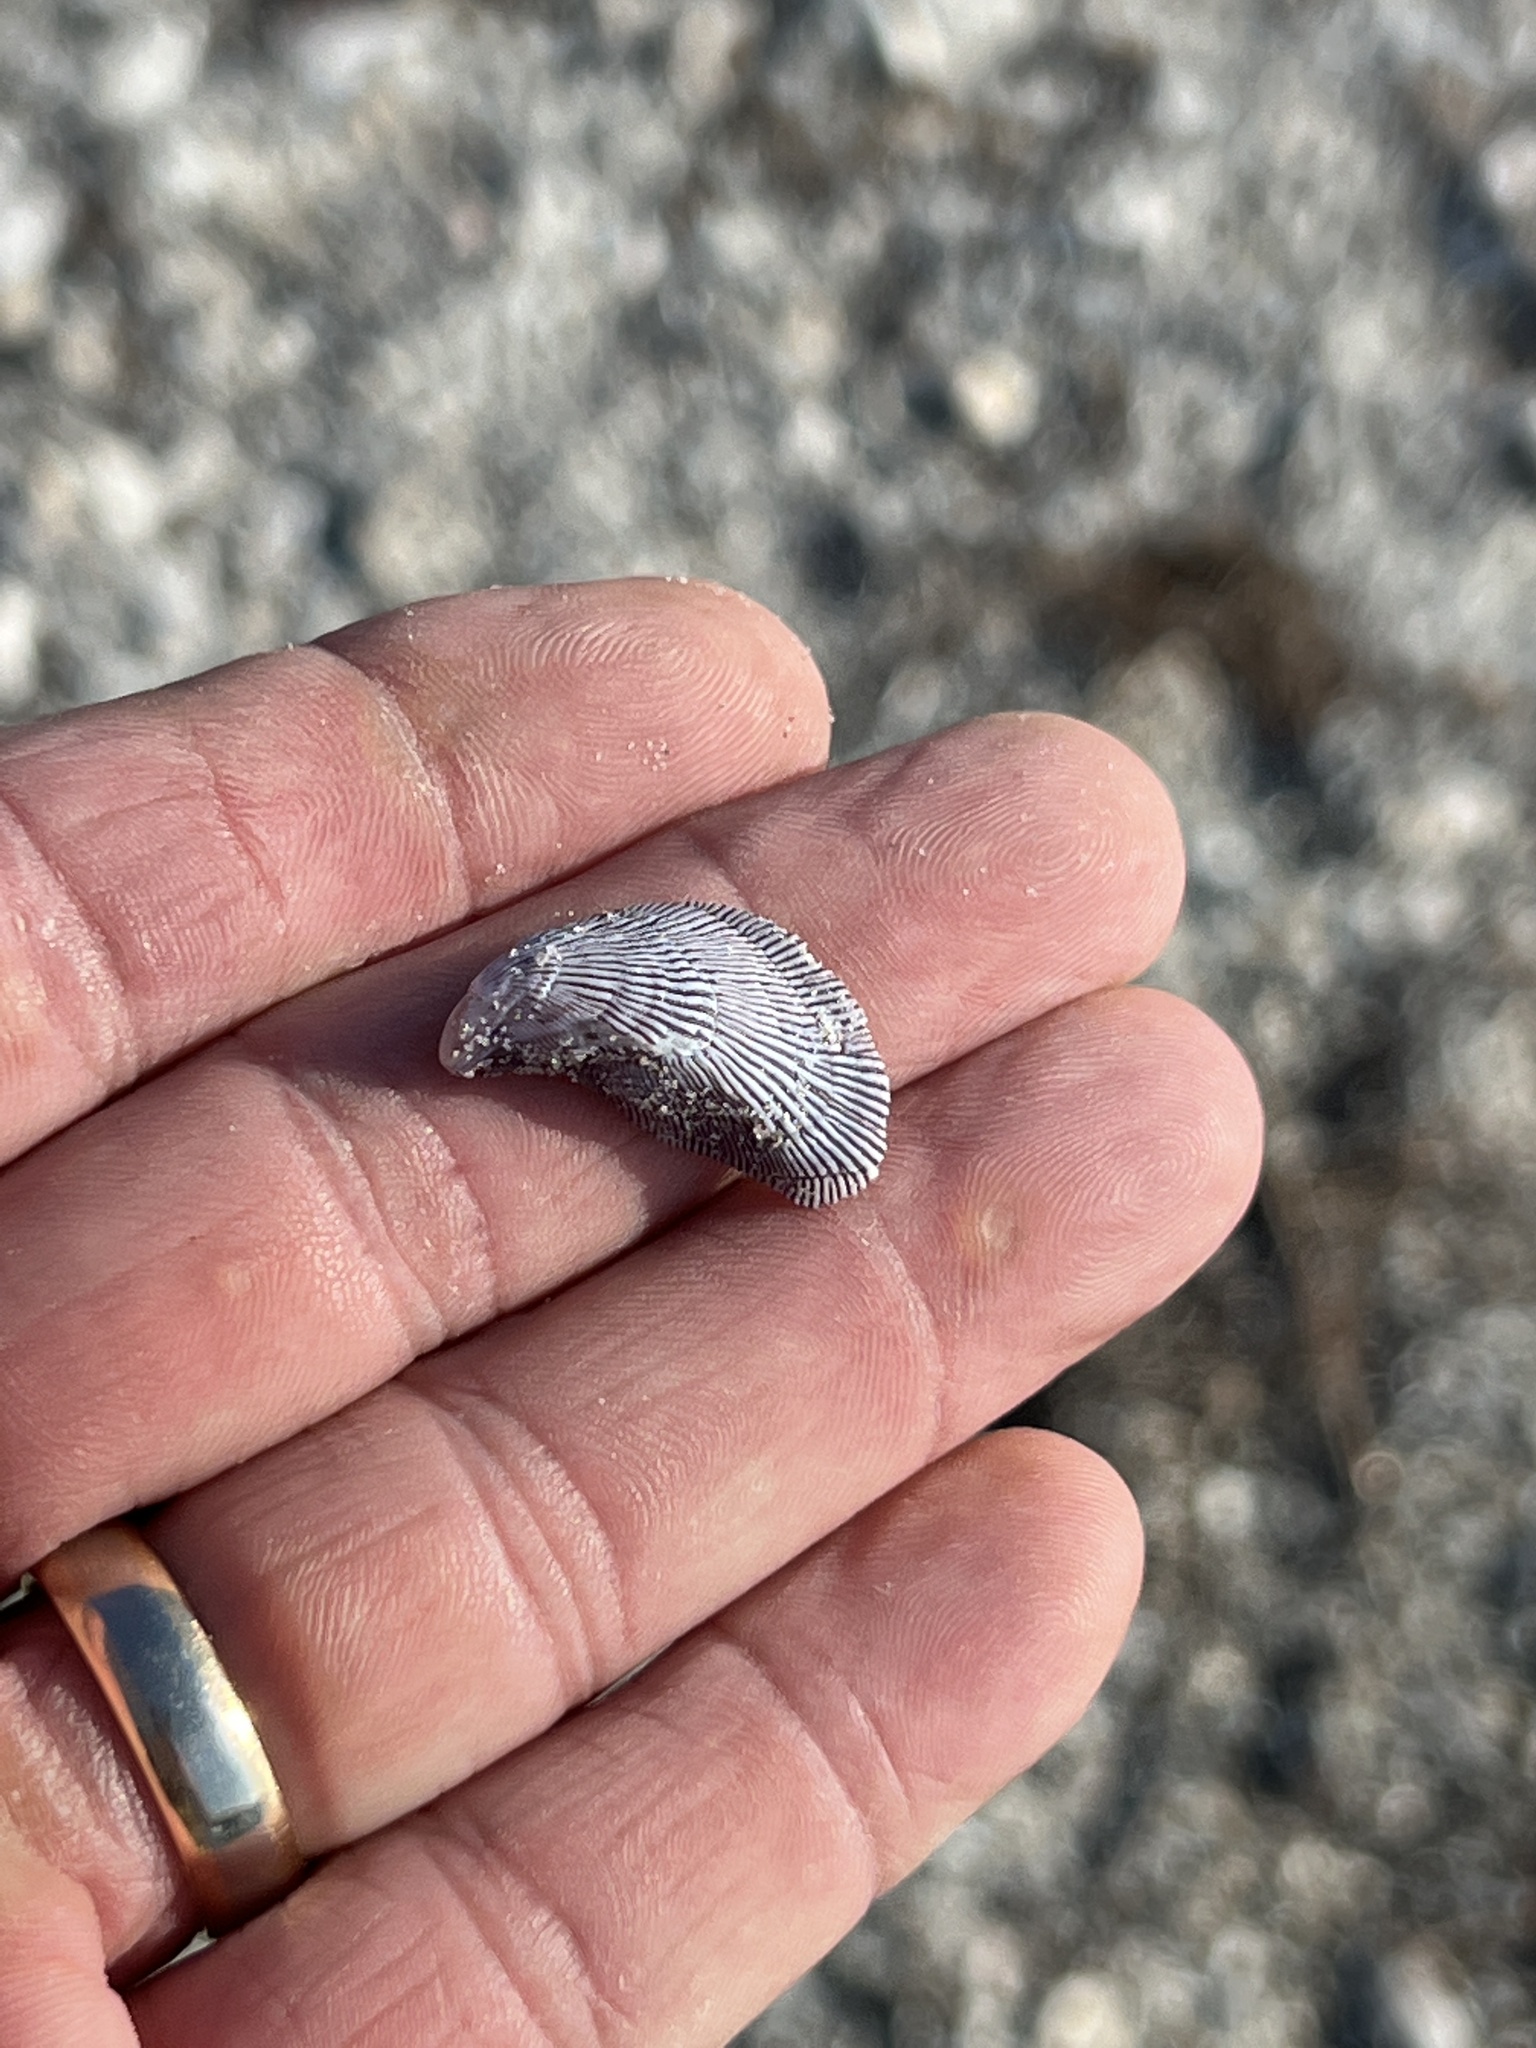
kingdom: Animalia
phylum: Mollusca
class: Bivalvia
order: Mytilida
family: Mytilidae
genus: Ischadium
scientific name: Ischadium recurvum
